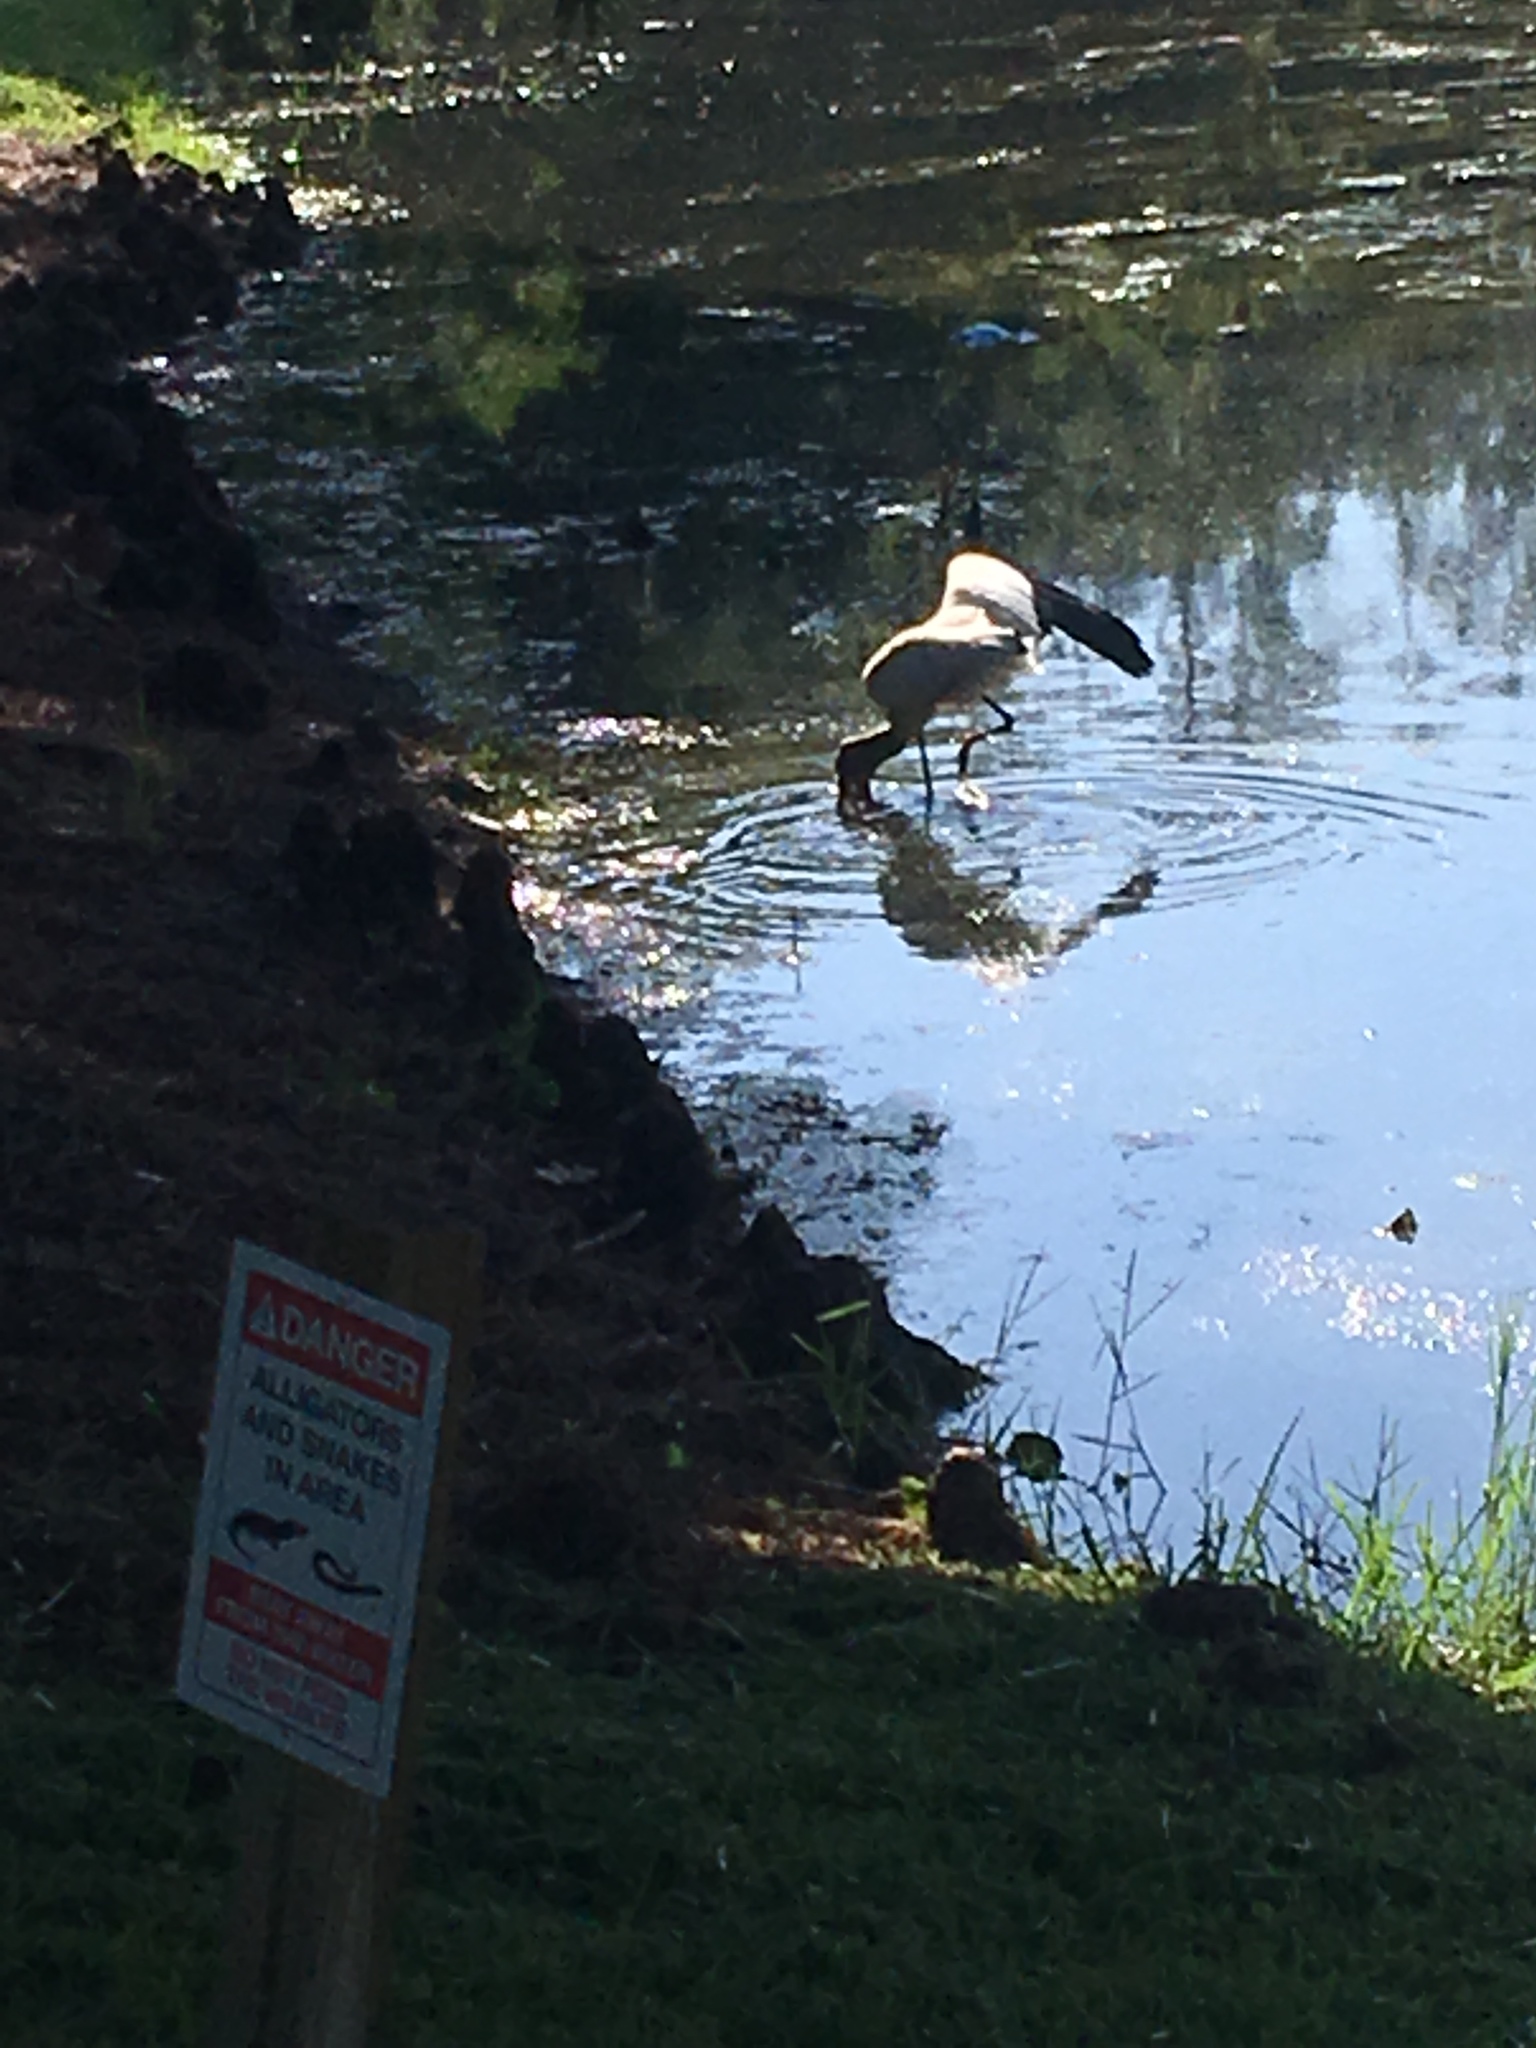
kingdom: Animalia
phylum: Chordata
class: Aves
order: Ciconiiformes
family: Ciconiidae
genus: Mycteria
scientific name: Mycteria americana
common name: Wood stork
